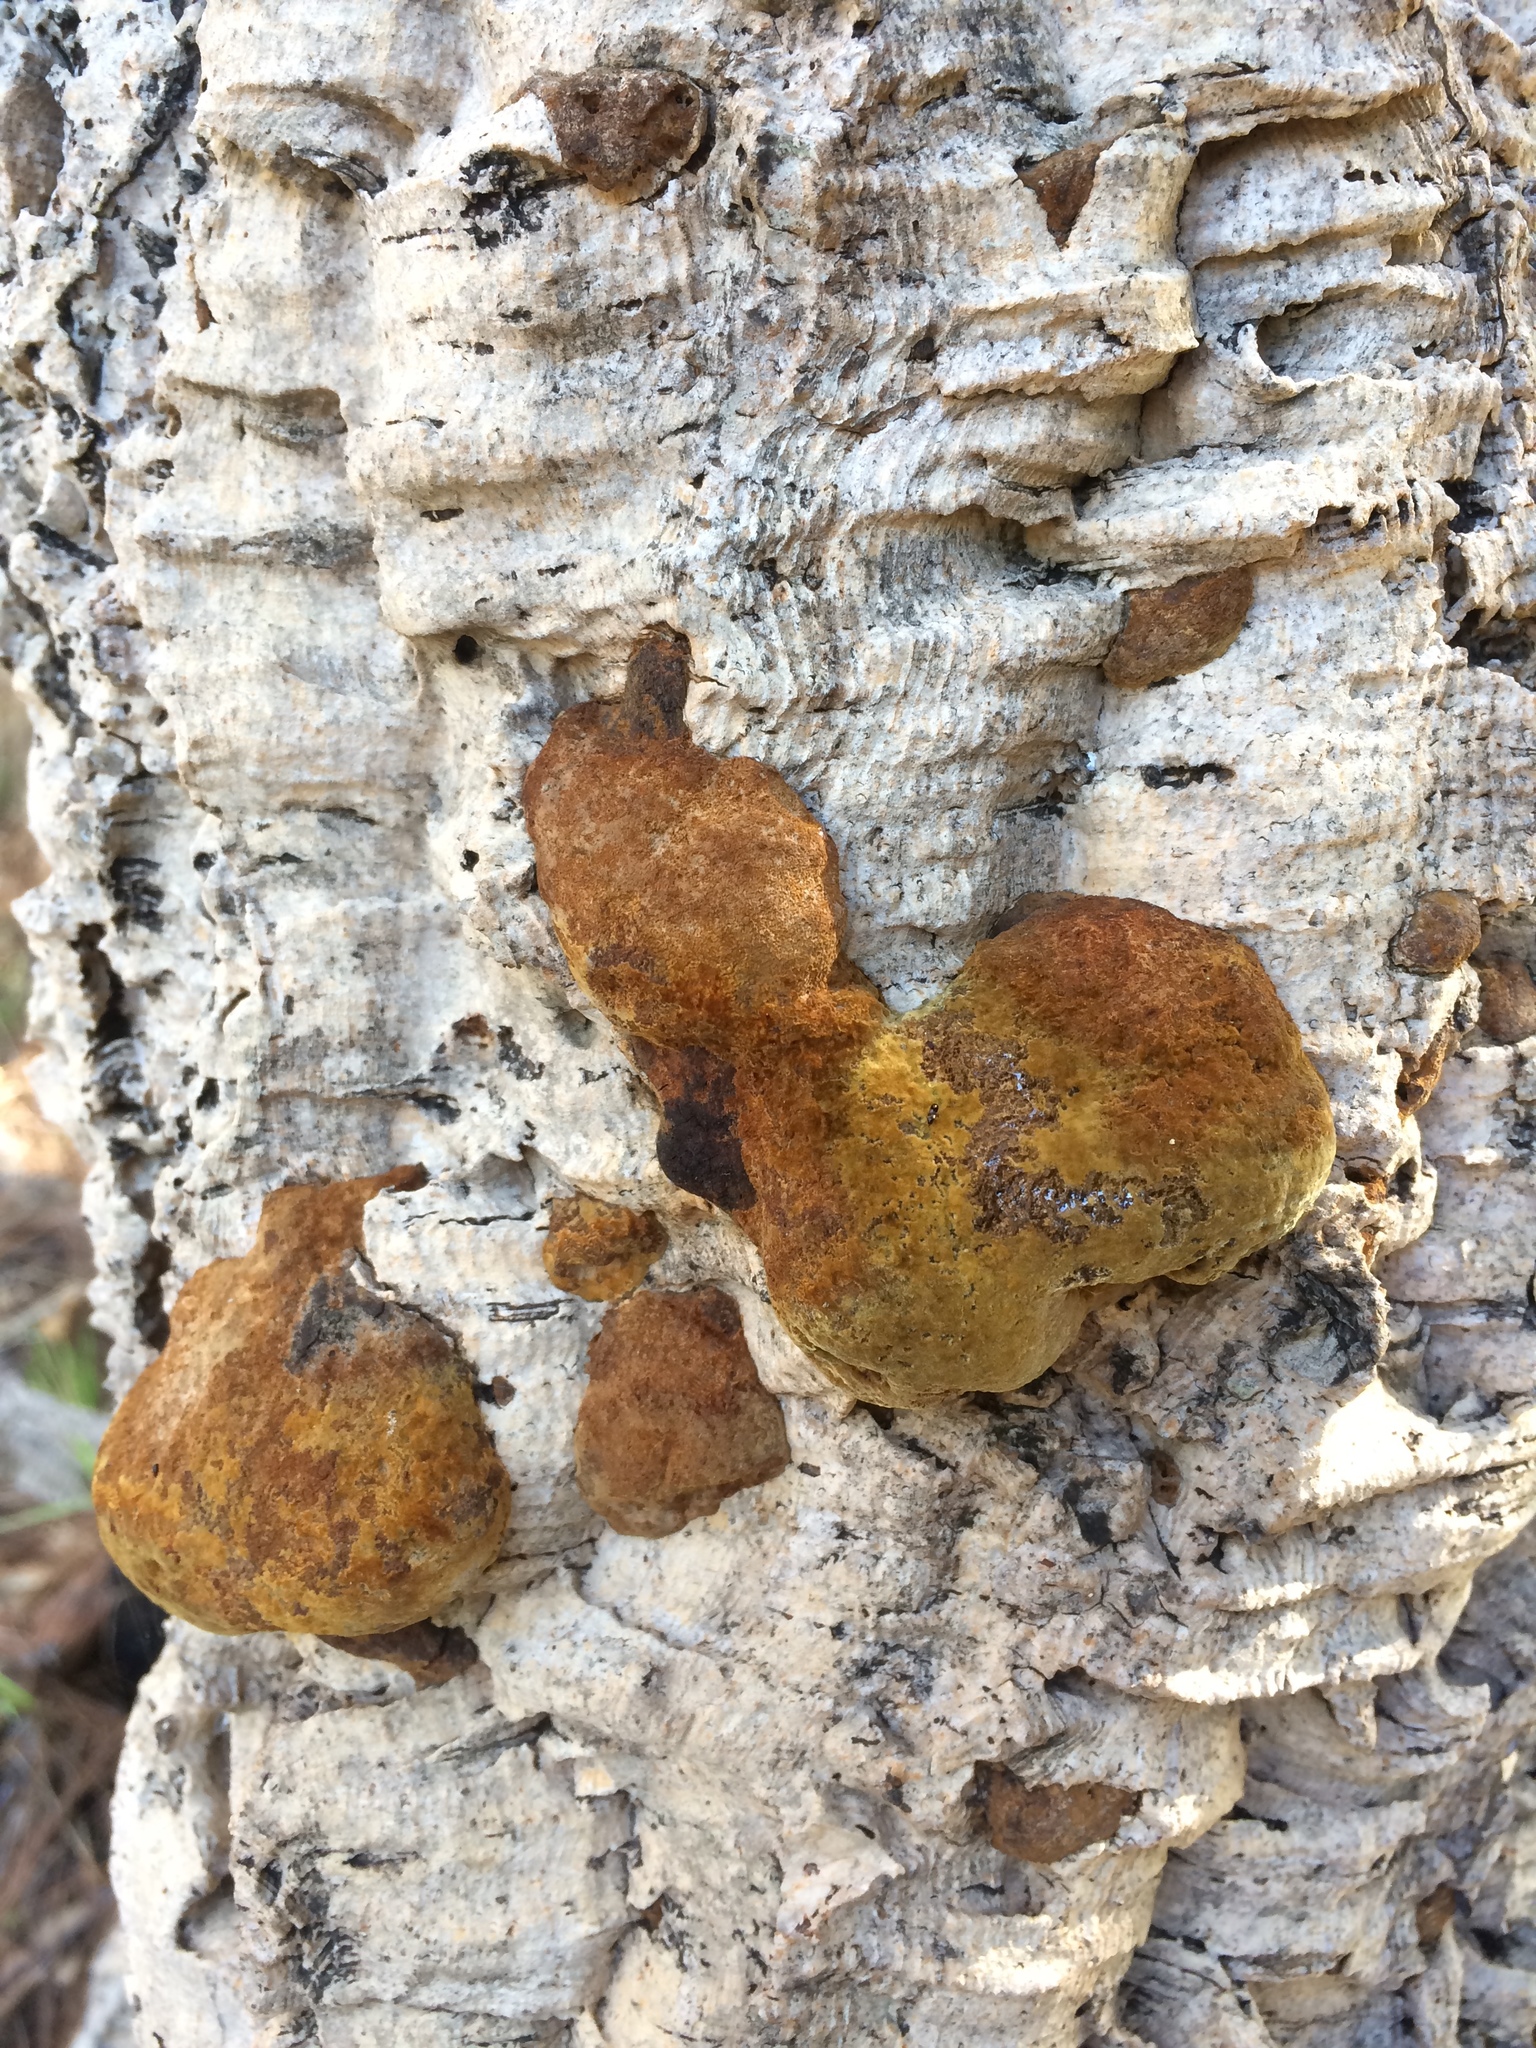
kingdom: Fungi
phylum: Basidiomycota
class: Agaricomycetes
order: Hymenochaetales
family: Hymenochaetaceae
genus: Phellinus
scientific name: Phellinus gilvus
